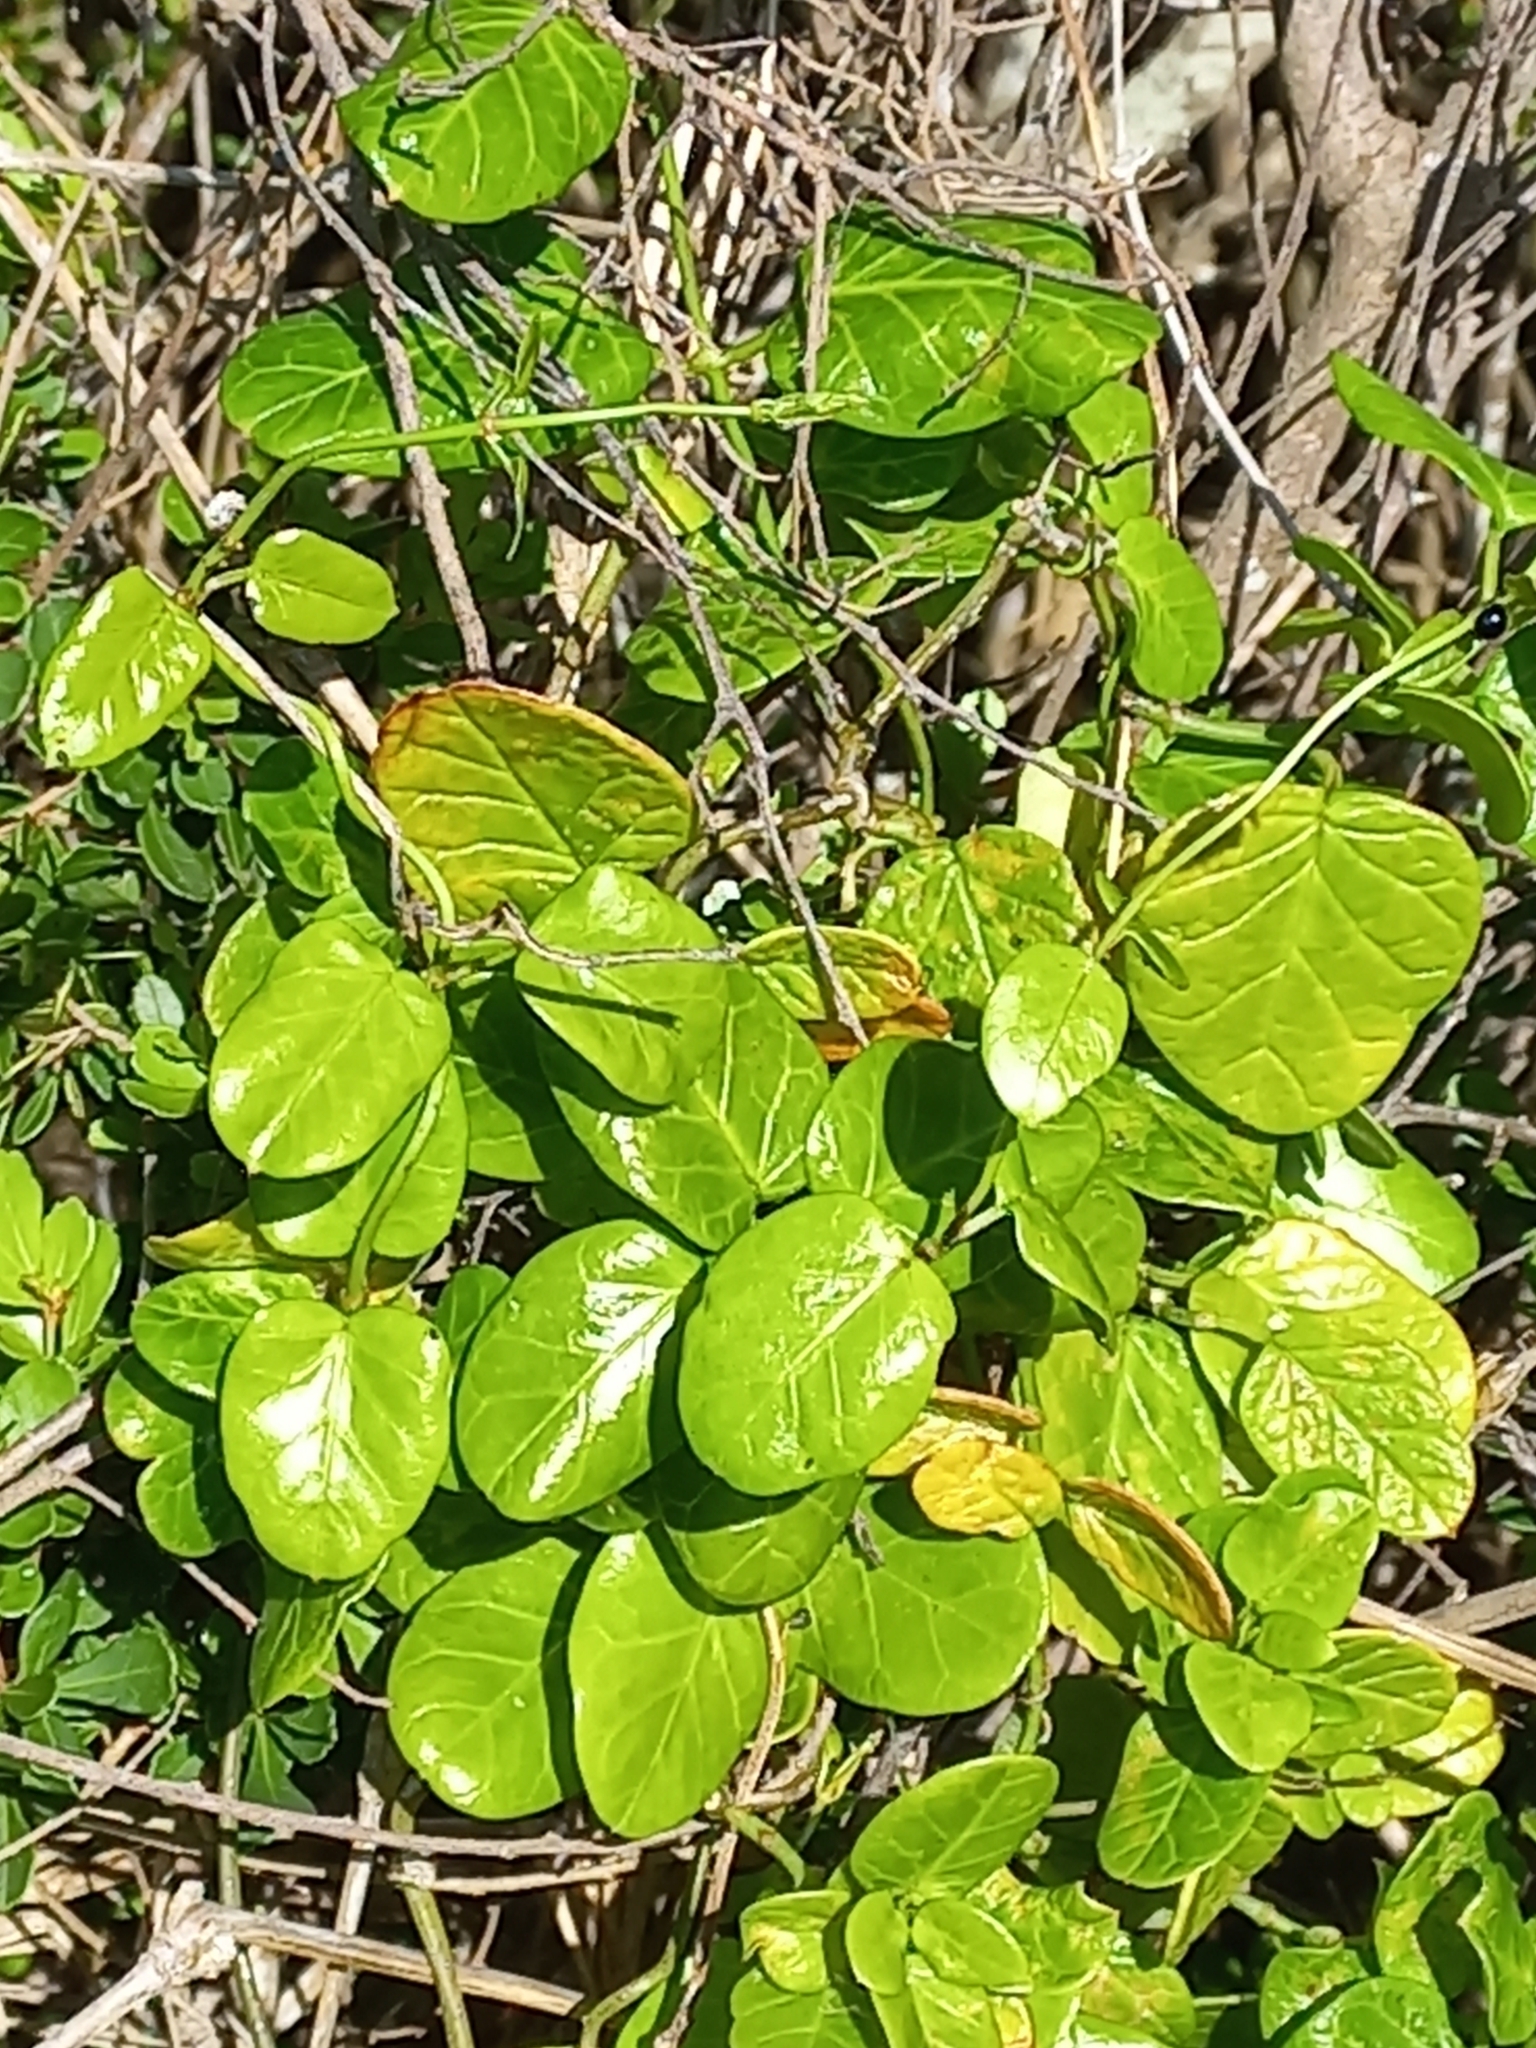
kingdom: Plantae
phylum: Tracheophyta
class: Magnoliopsida
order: Gentianales
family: Apocynaceae
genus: Cynanchum
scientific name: Cynanchum obtusifolium
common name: Monkey-rope
